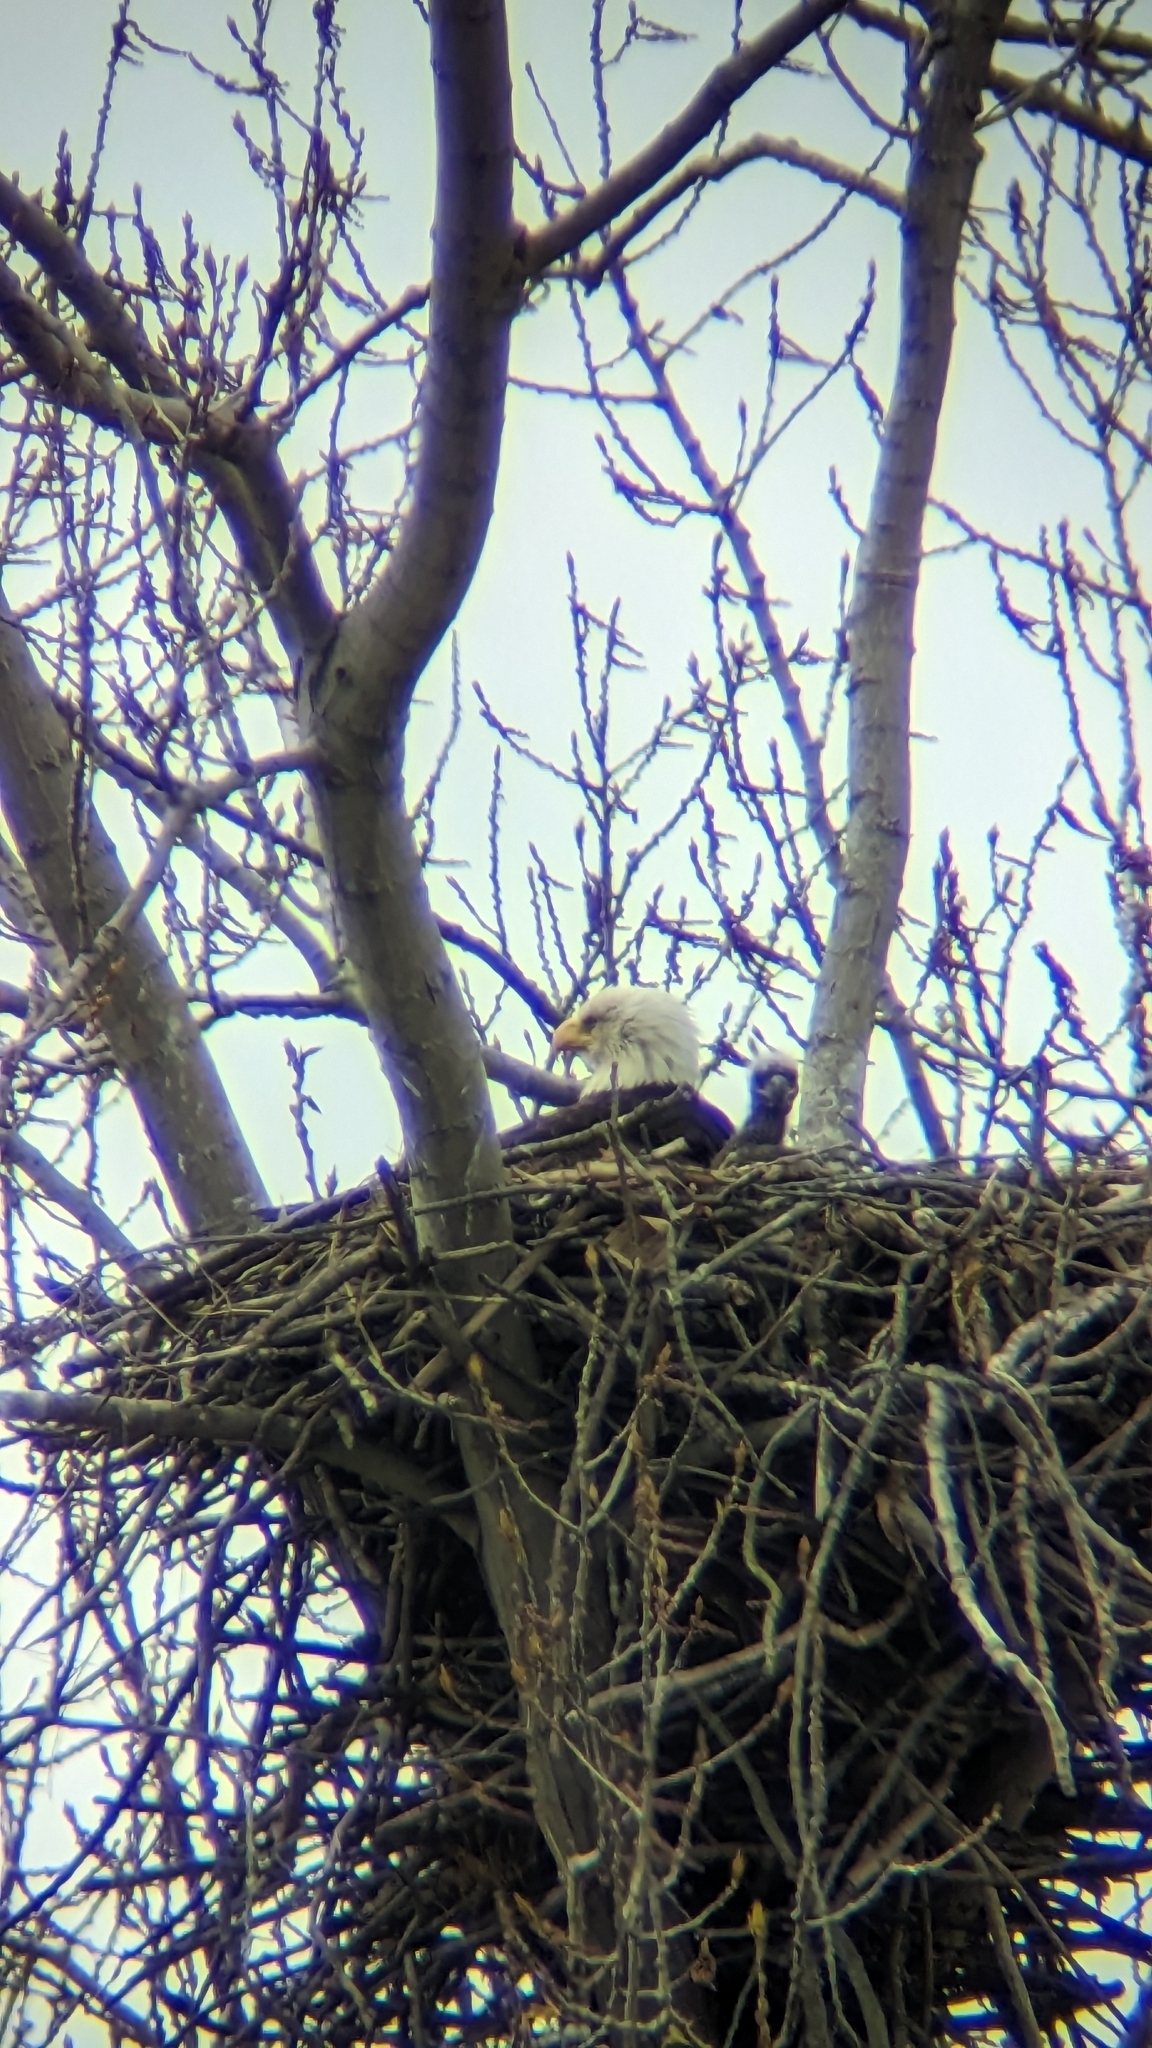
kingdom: Animalia
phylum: Chordata
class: Aves
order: Accipitriformes
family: Accipitridae
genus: Haliaeetus
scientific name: Haliaeetus leucocephalus
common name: Bald eagle
